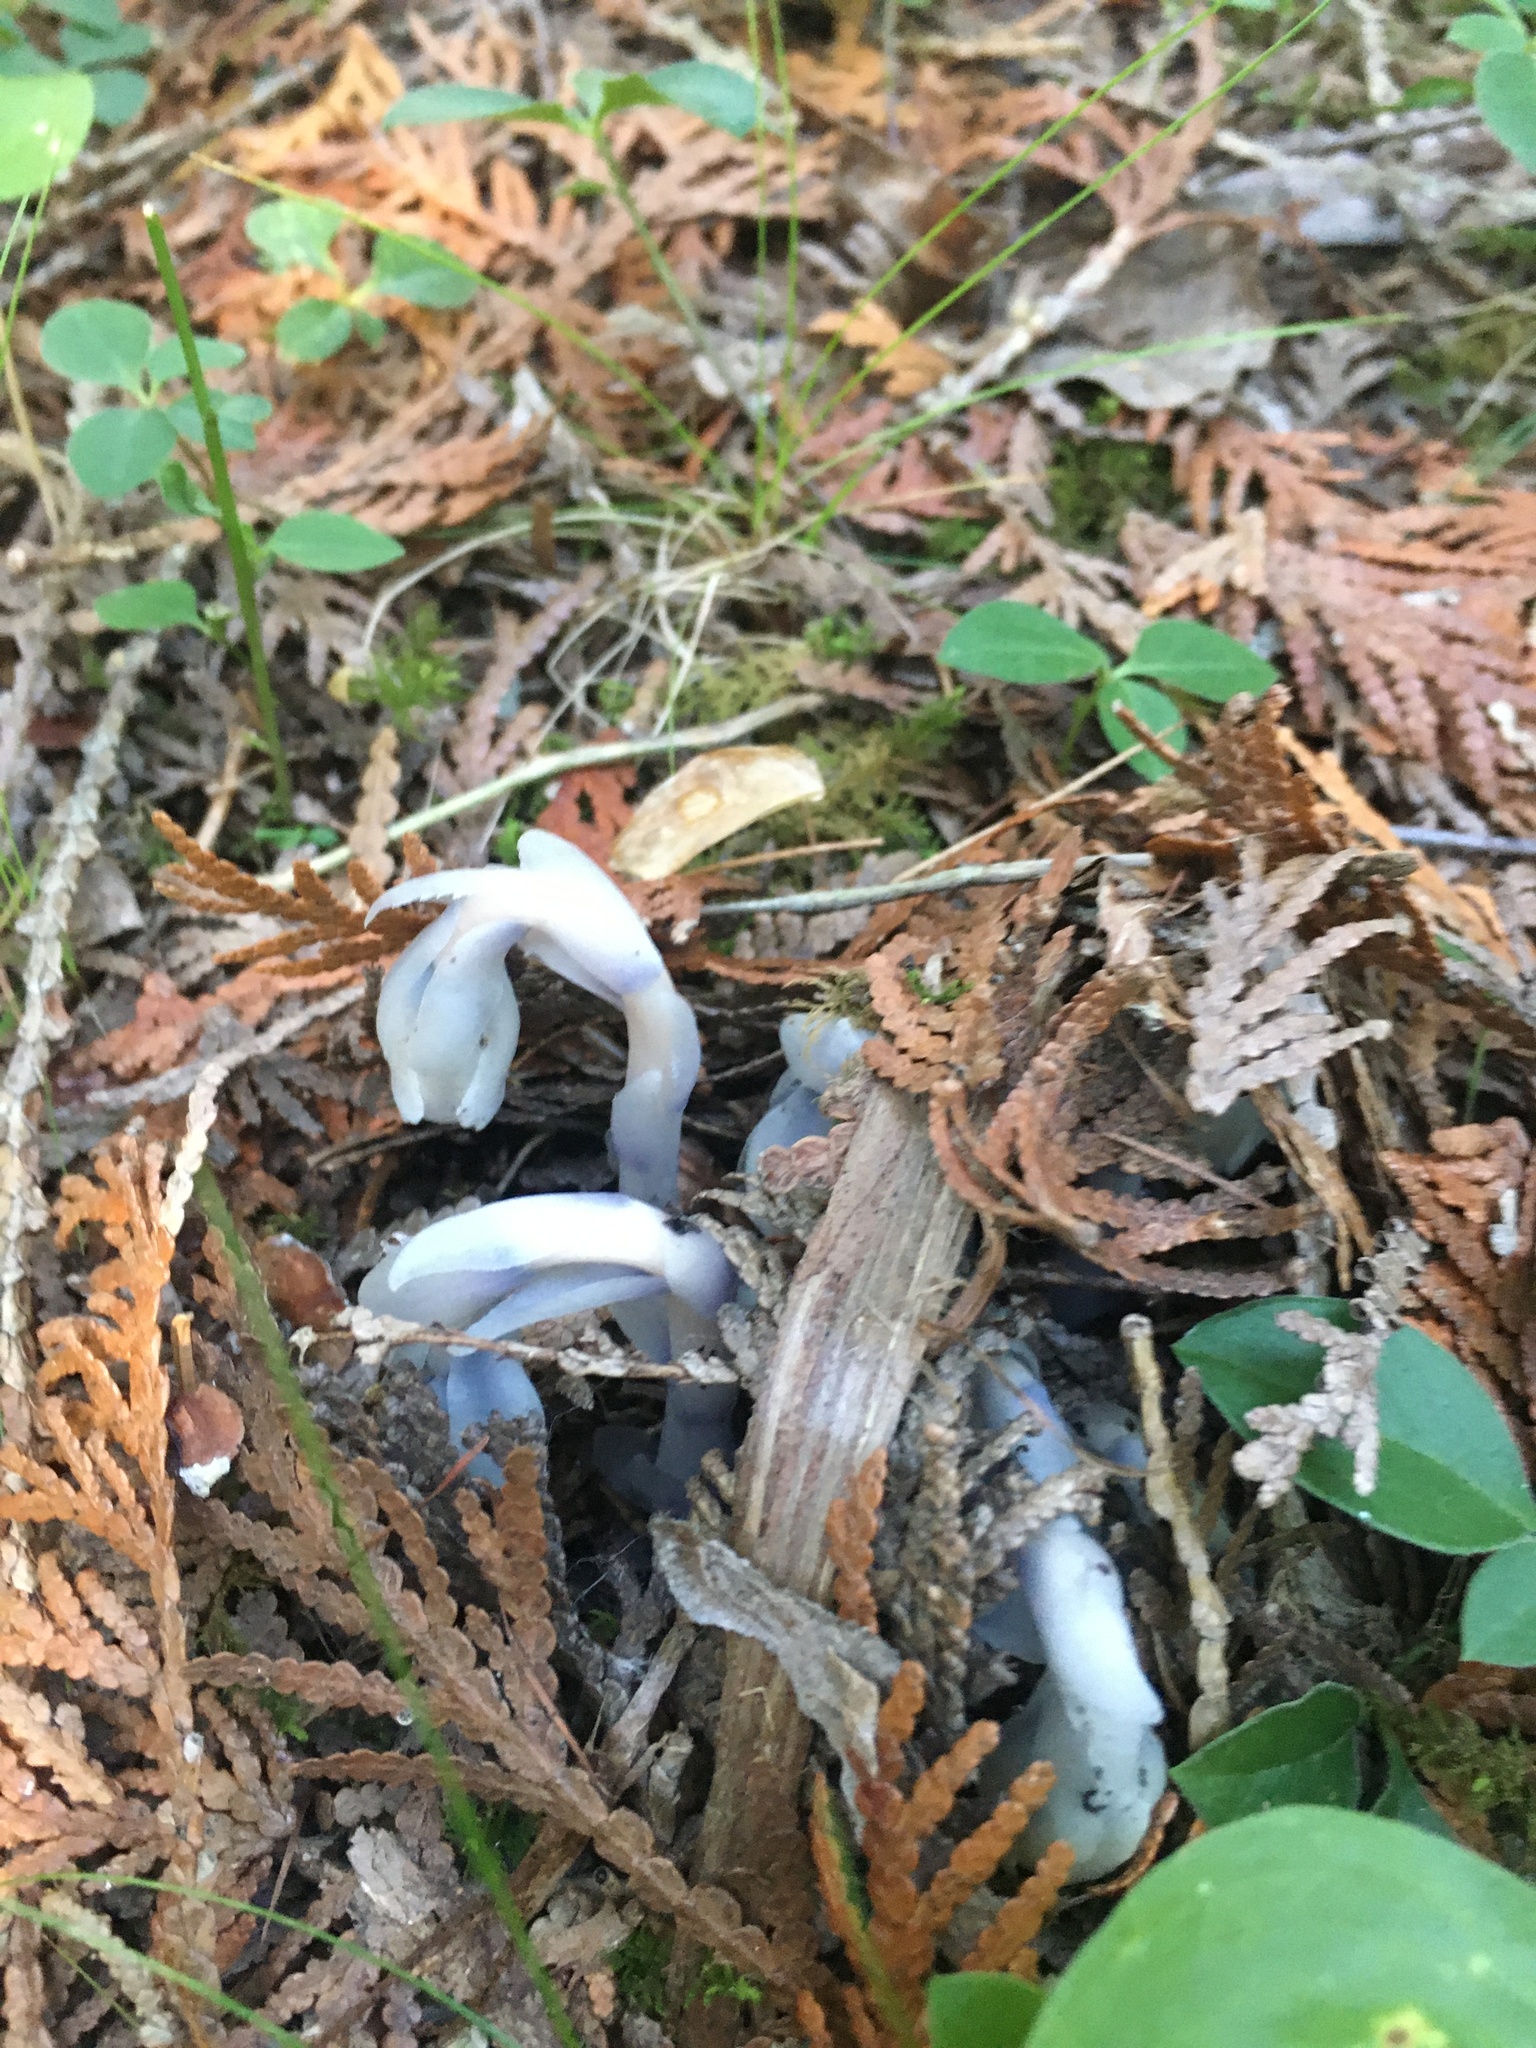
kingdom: Plantae
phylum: Tracheophyta
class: Magnoliopsida
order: Ericales
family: Ericaceae
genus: Monotropa
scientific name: Monotropa uniflora
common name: Convulsion root
